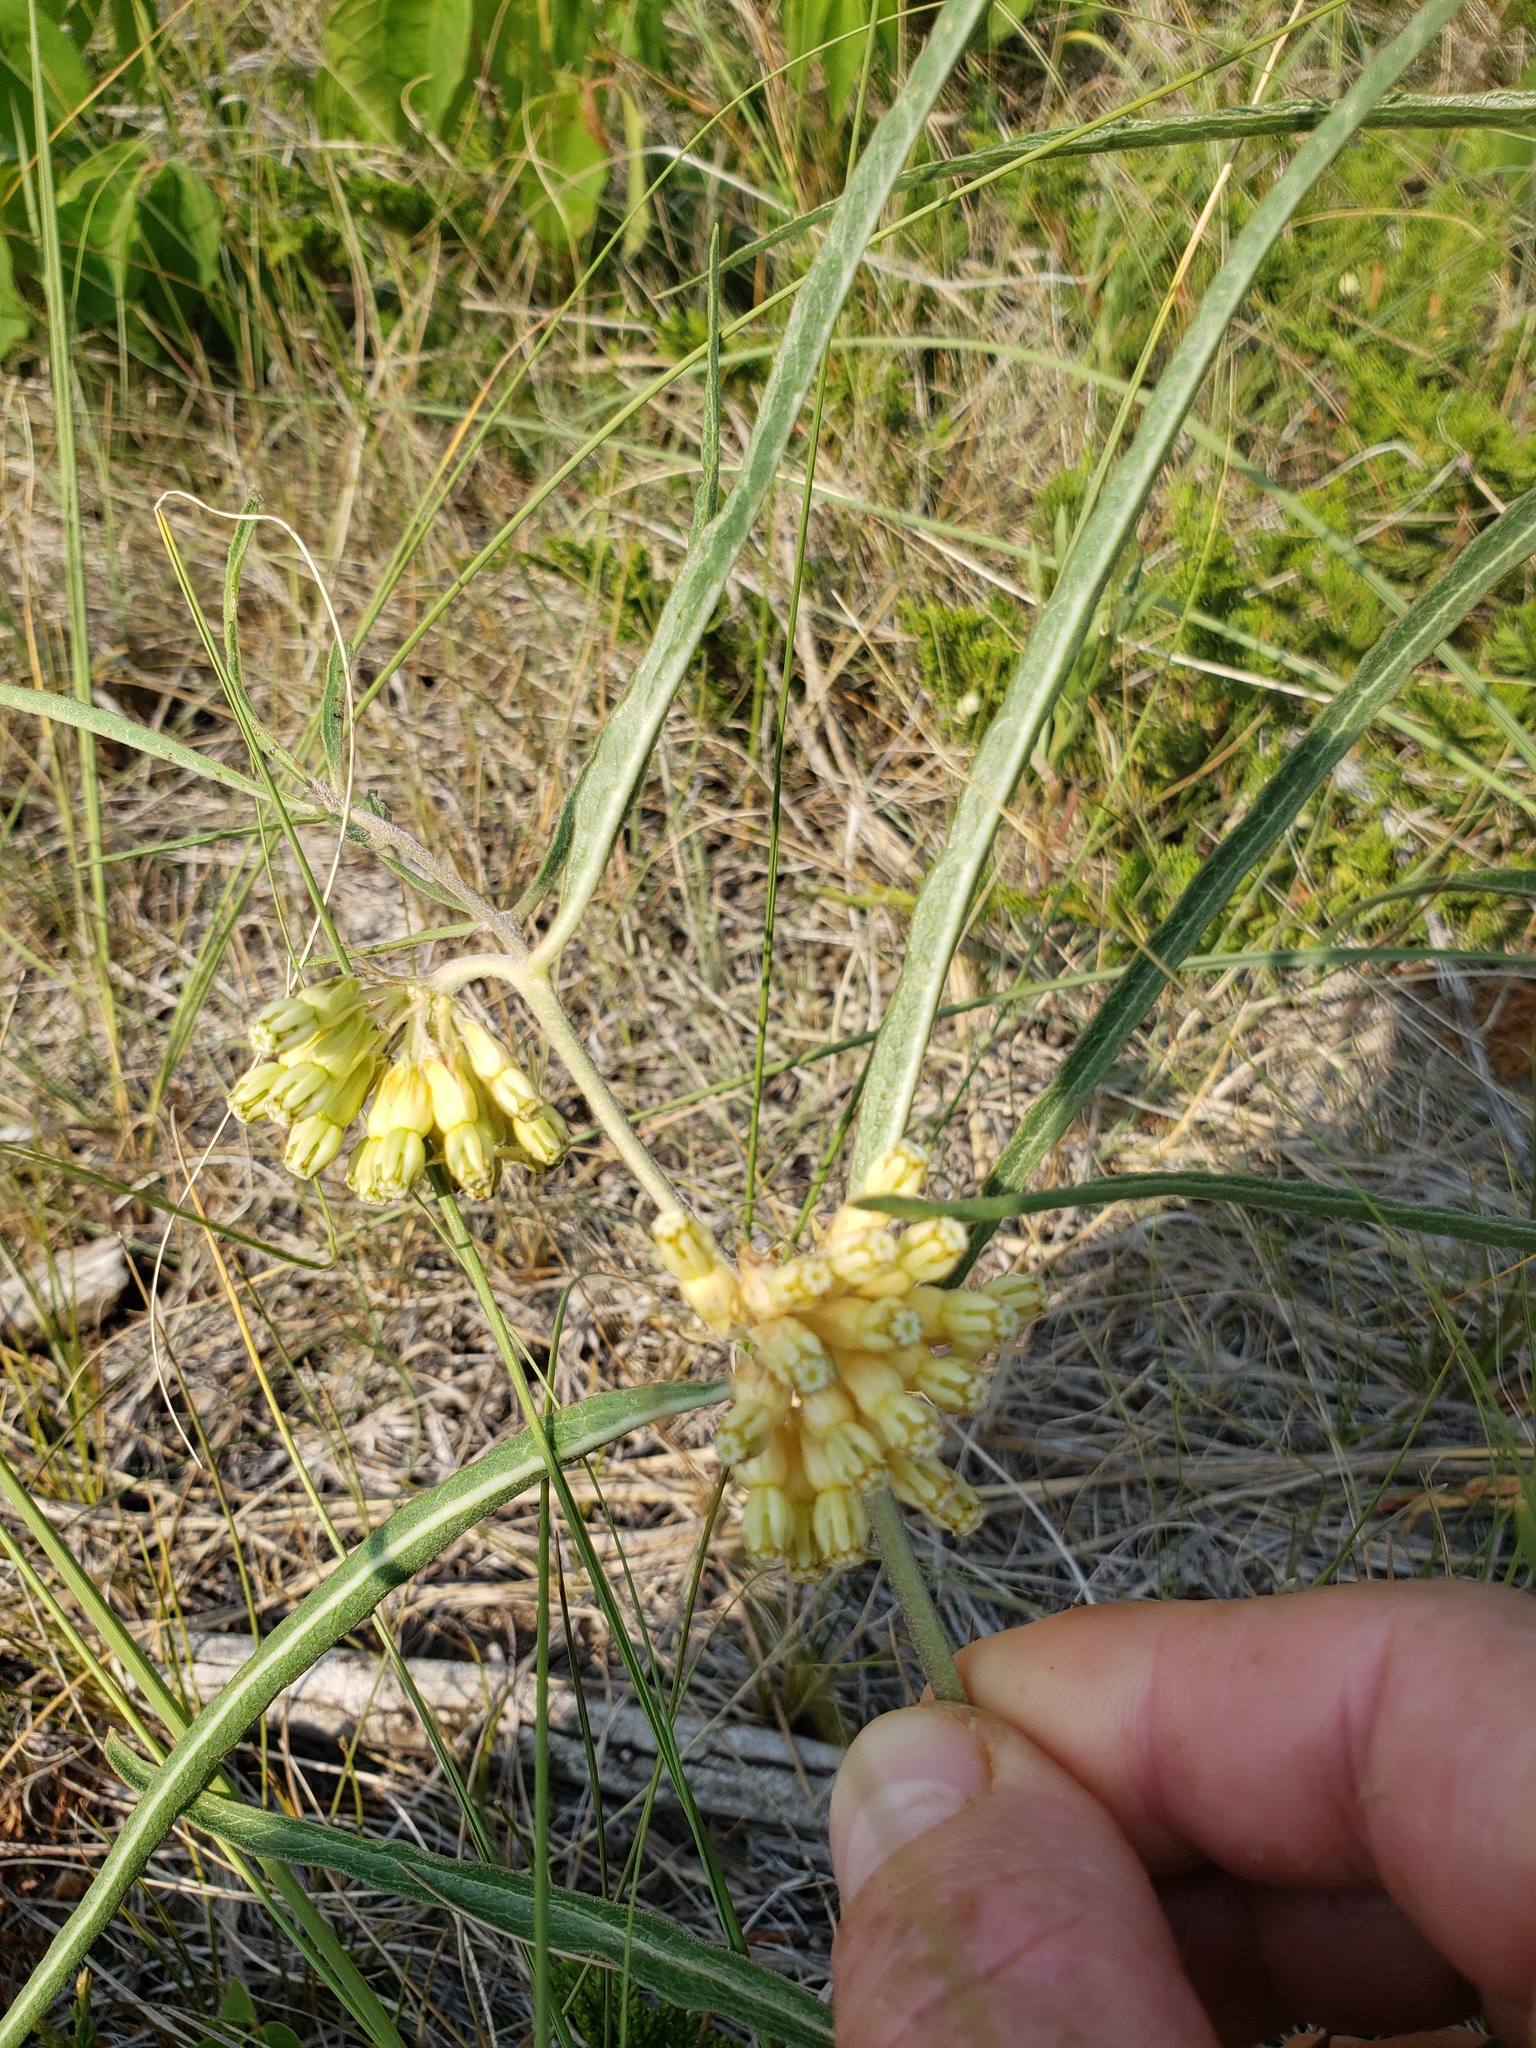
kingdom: Plantae
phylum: Tracheophyta
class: Magnoliopsida
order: Gentianales
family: Apocynaceae
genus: Asclepias
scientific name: Asclepias viridiflora
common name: Green comet milkweed
